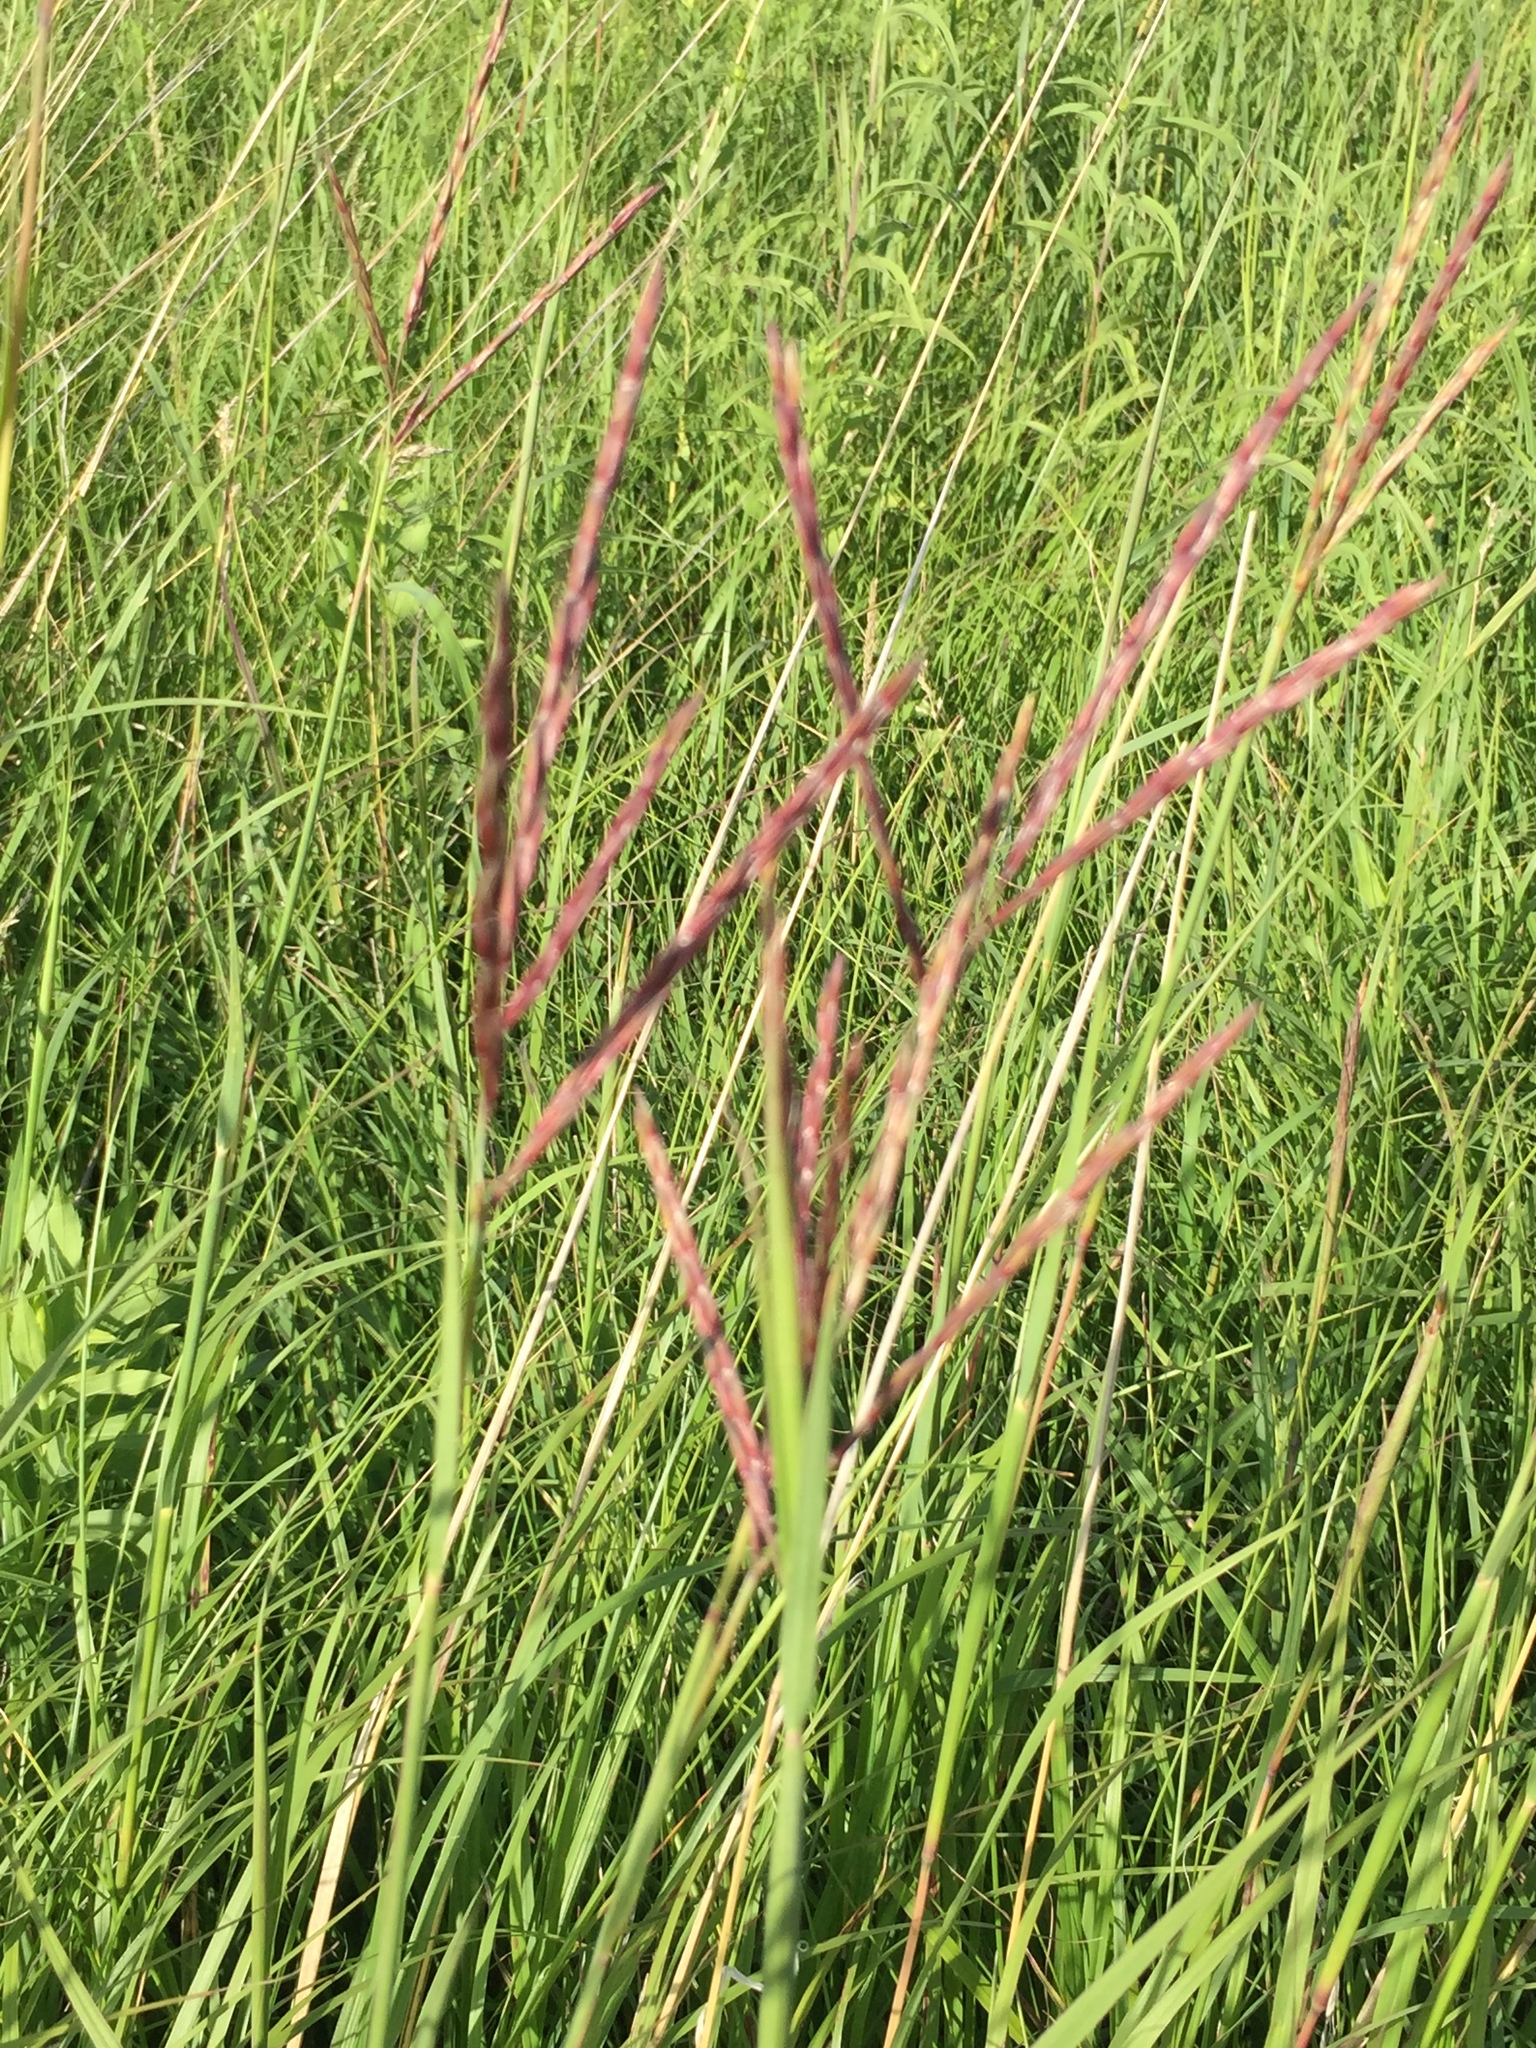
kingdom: Plantae
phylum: Tracheophyta
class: Liliopsida
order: Poales
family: Poaceae
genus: Andropogon
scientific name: Andropogon gerardi
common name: Big bluestem
